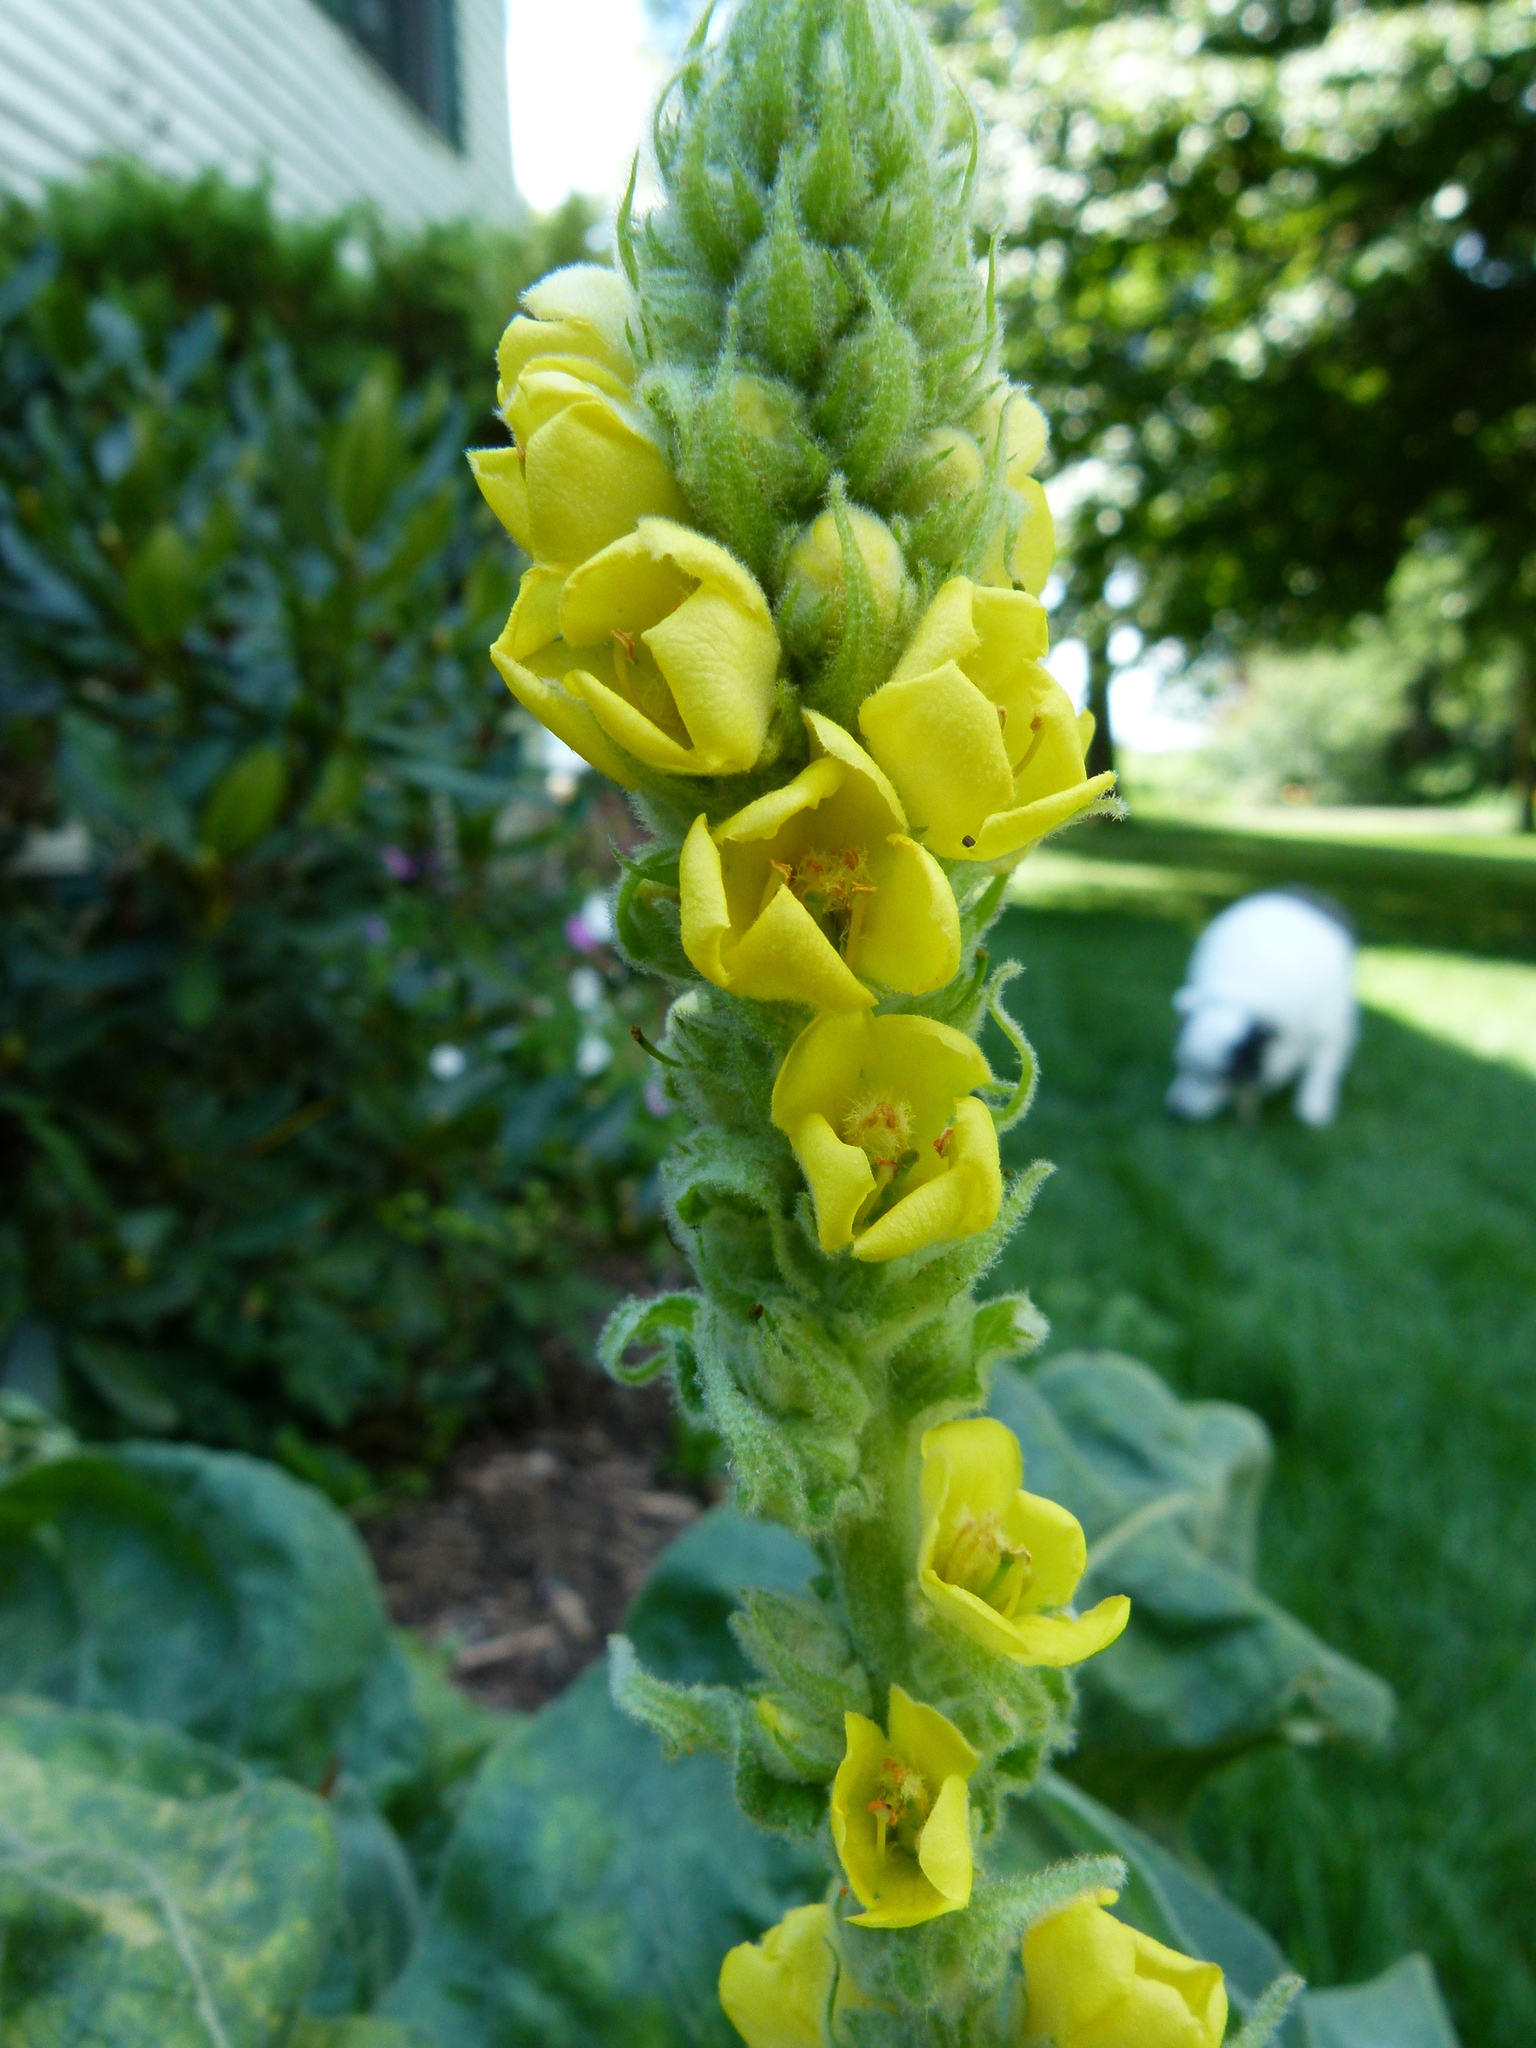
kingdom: Plantae
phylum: Tracheophyta
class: Magnoliopsida
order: Lamiales
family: Scrophulariaceae
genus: Verbascum
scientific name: Verbascum thapsus
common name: Common mullein
